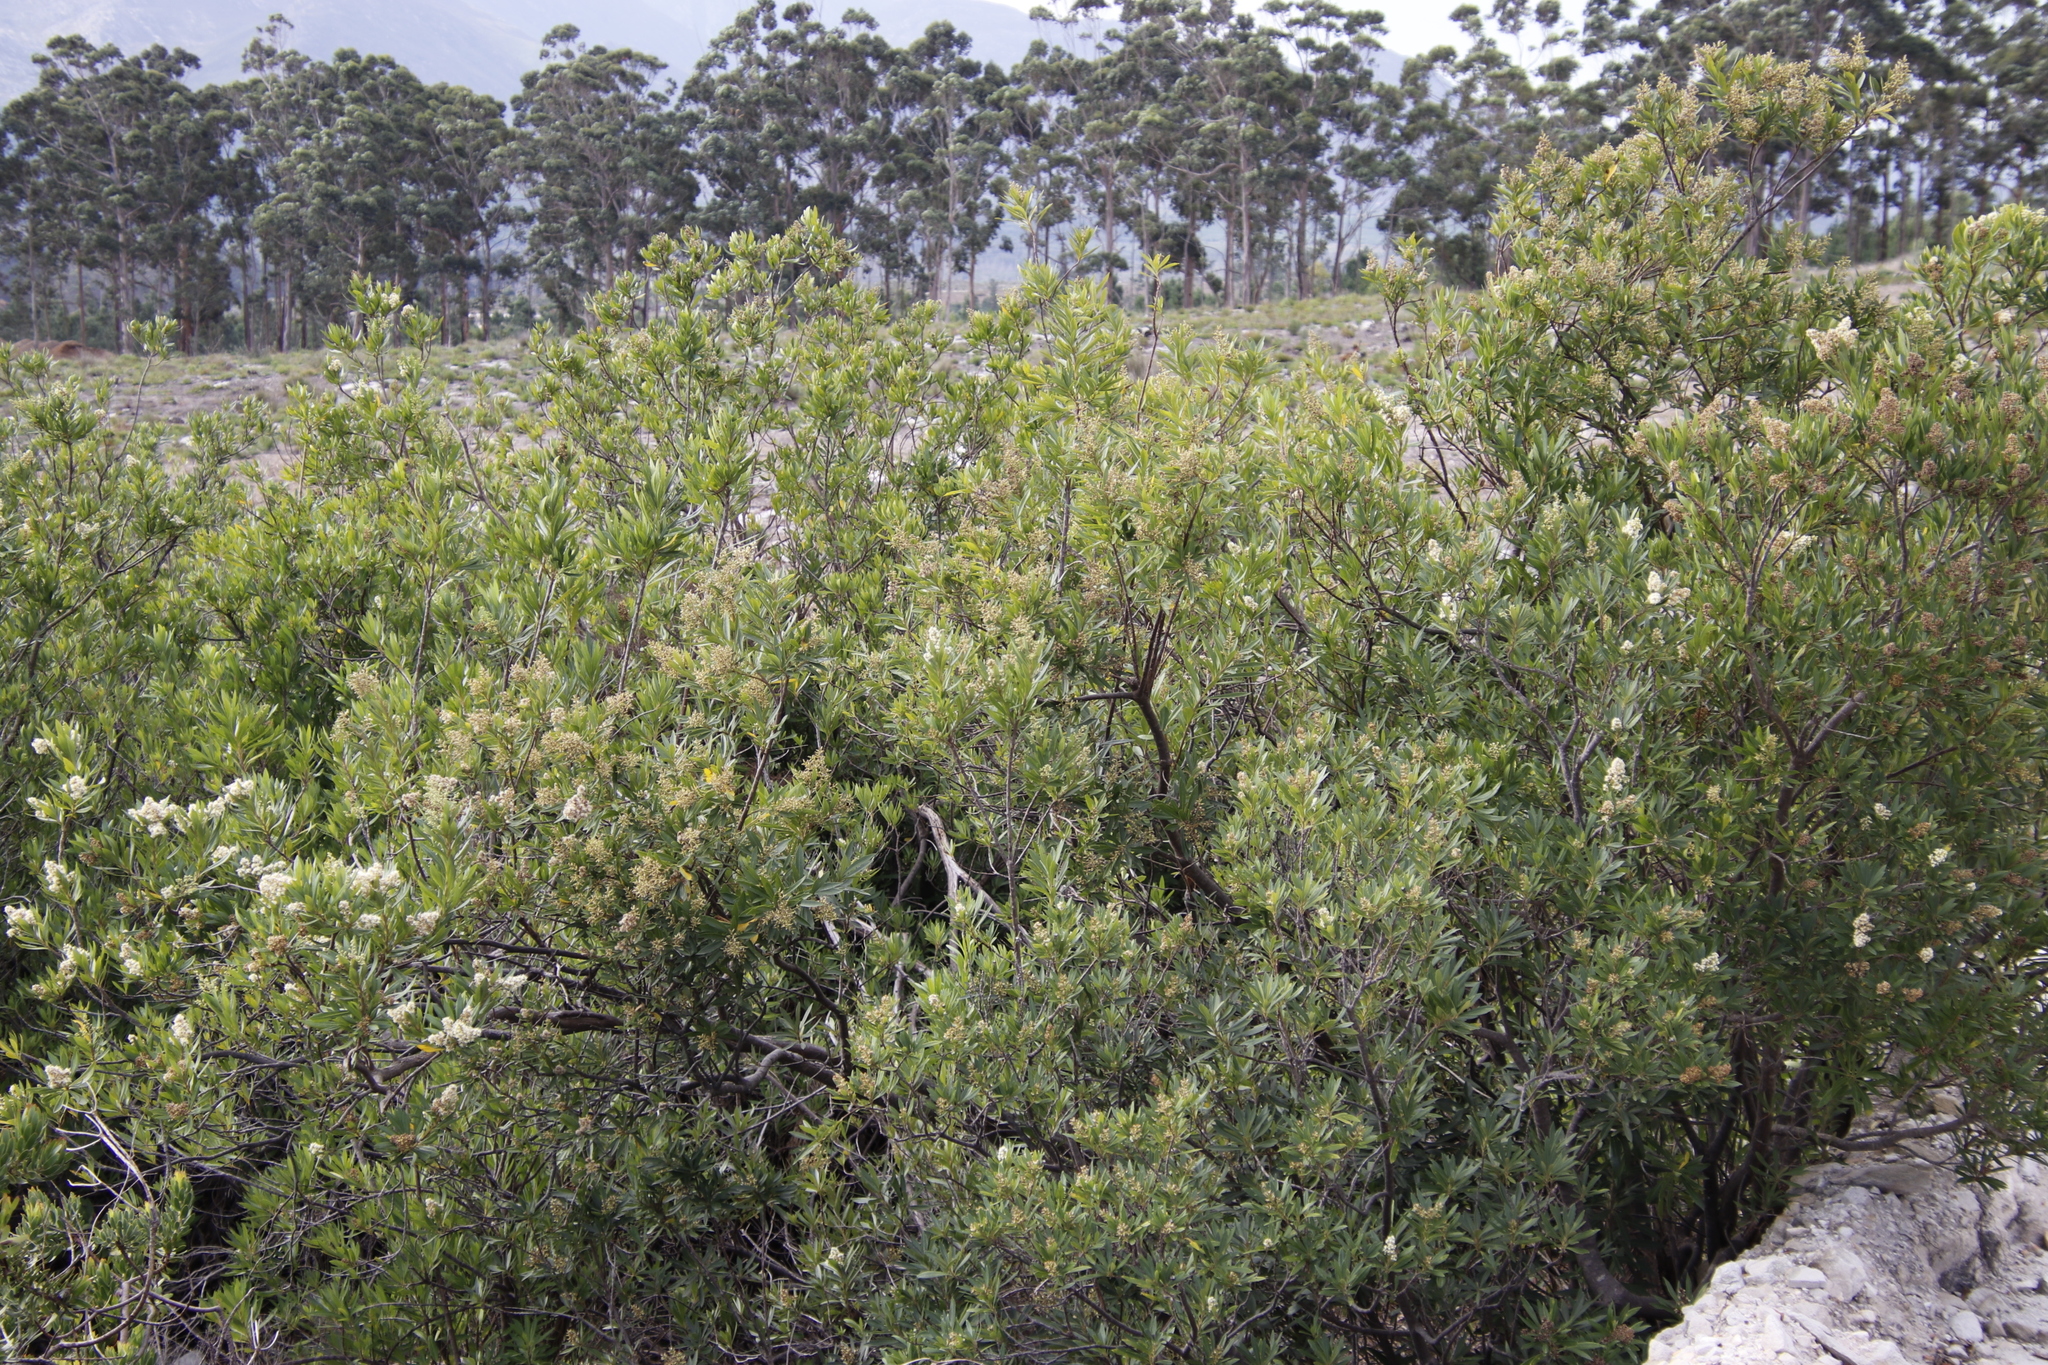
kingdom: Plantae
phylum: Tracheophyta
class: Magnoliopsida
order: Asterales
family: Asteraceae
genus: Brachylaena
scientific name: Brachylaena neriifolia
